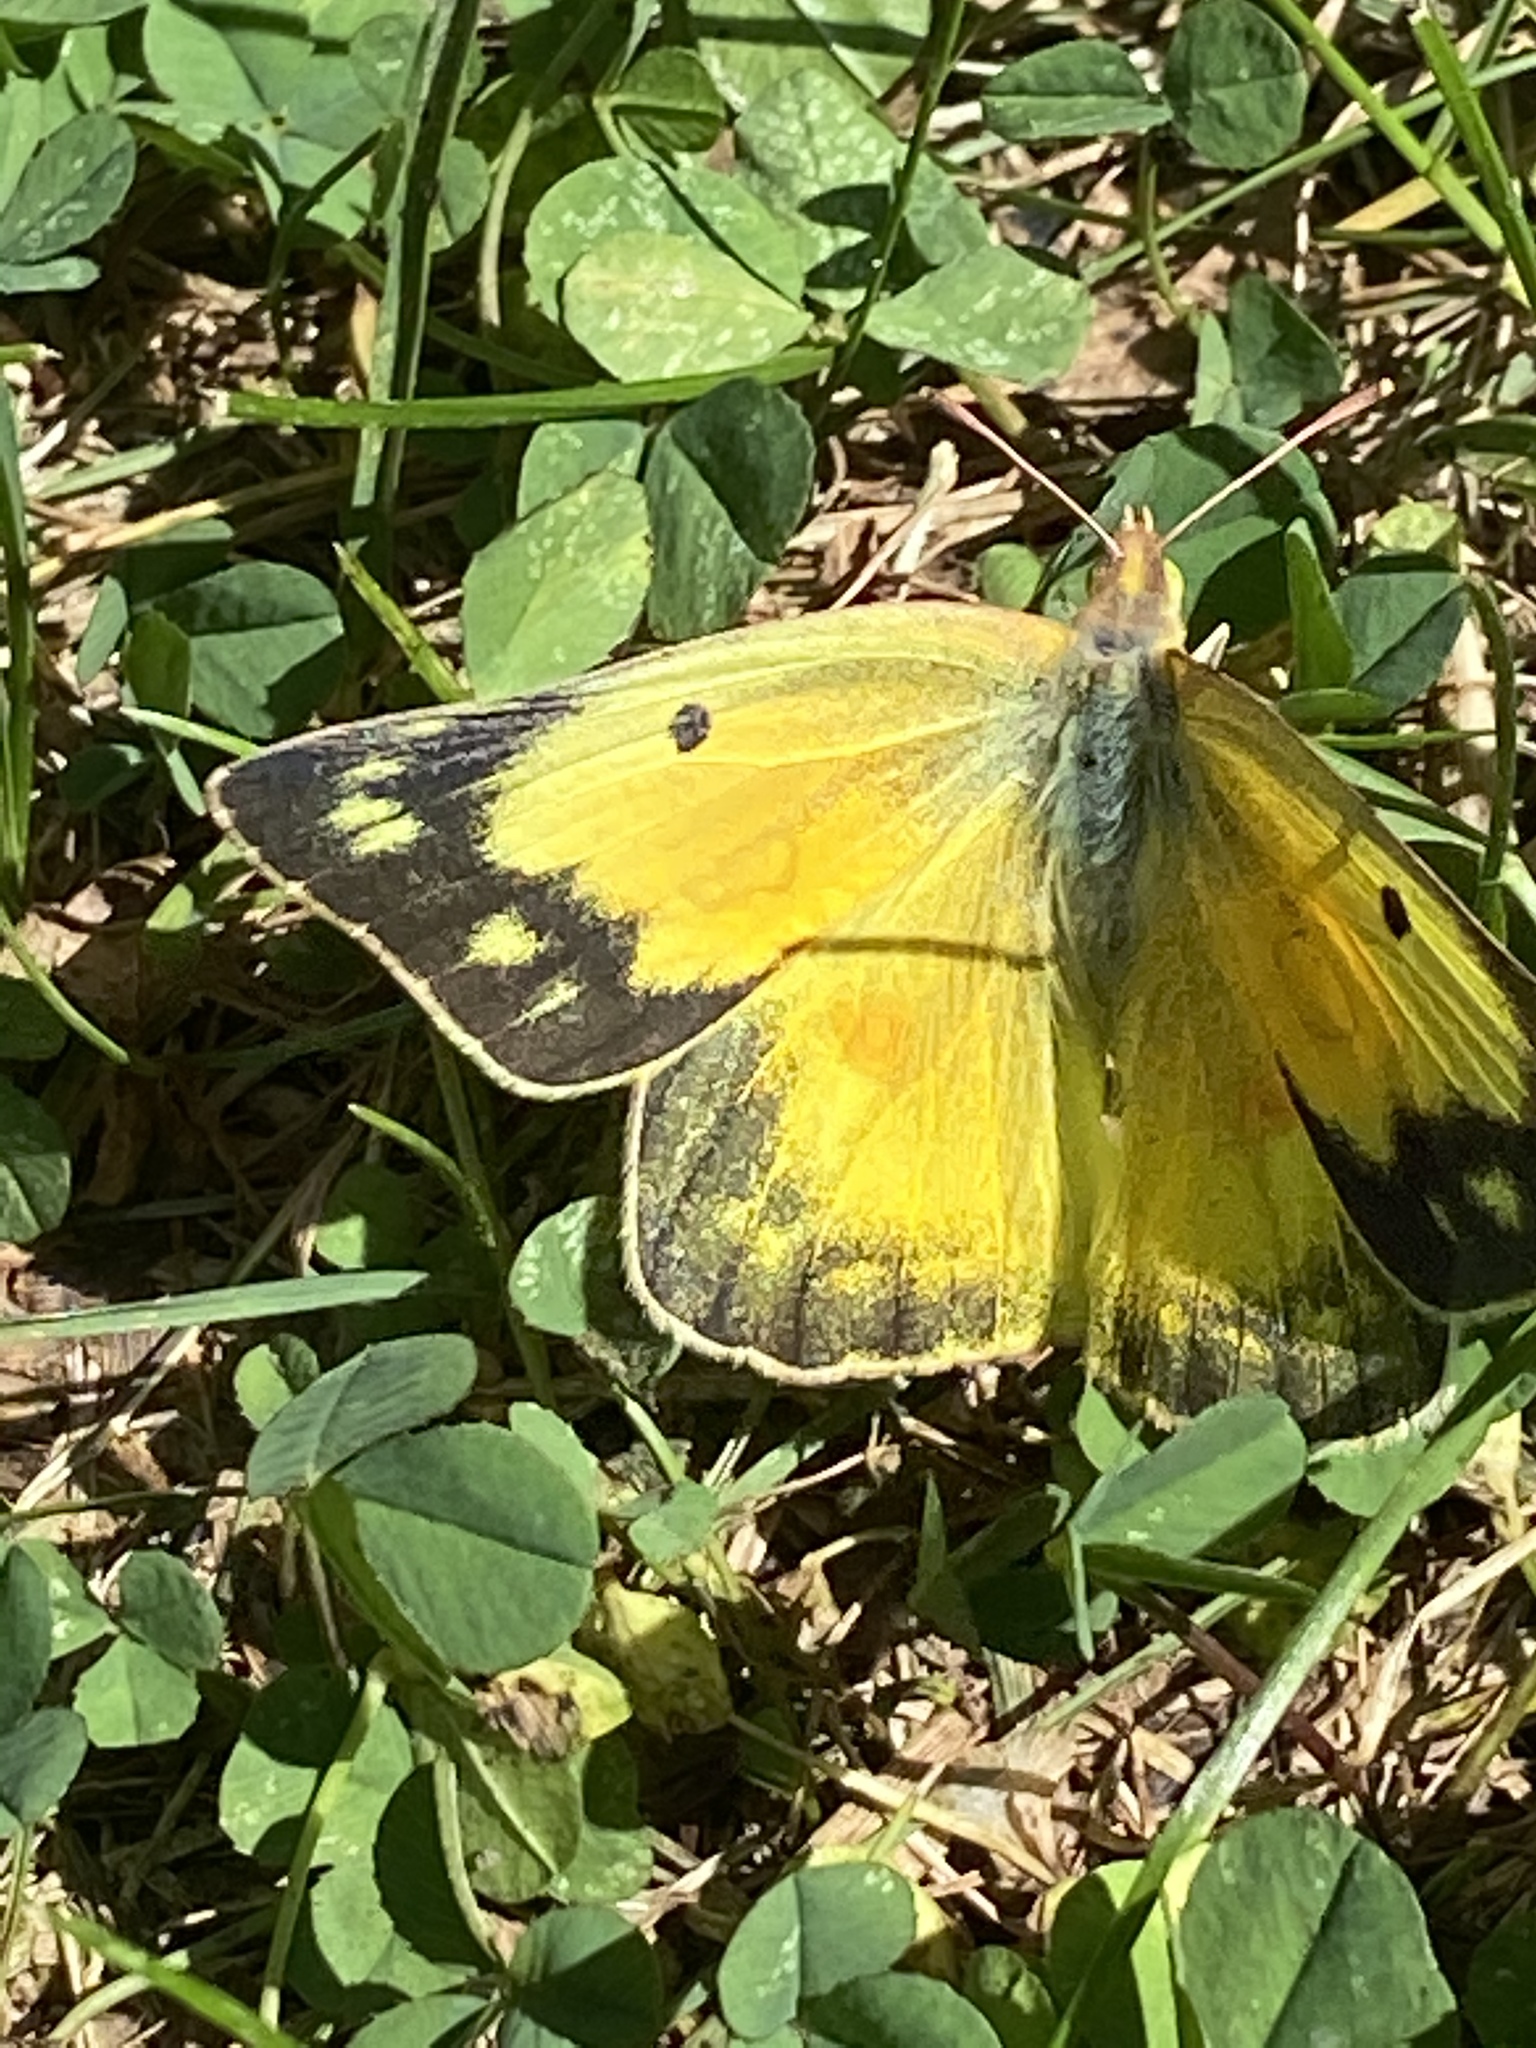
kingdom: Animalia
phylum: Arthropoda
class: Insecta
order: Lepidoptera
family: Pieridae
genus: Colias
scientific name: Colias eurytheme
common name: Alfalfa butterfly
